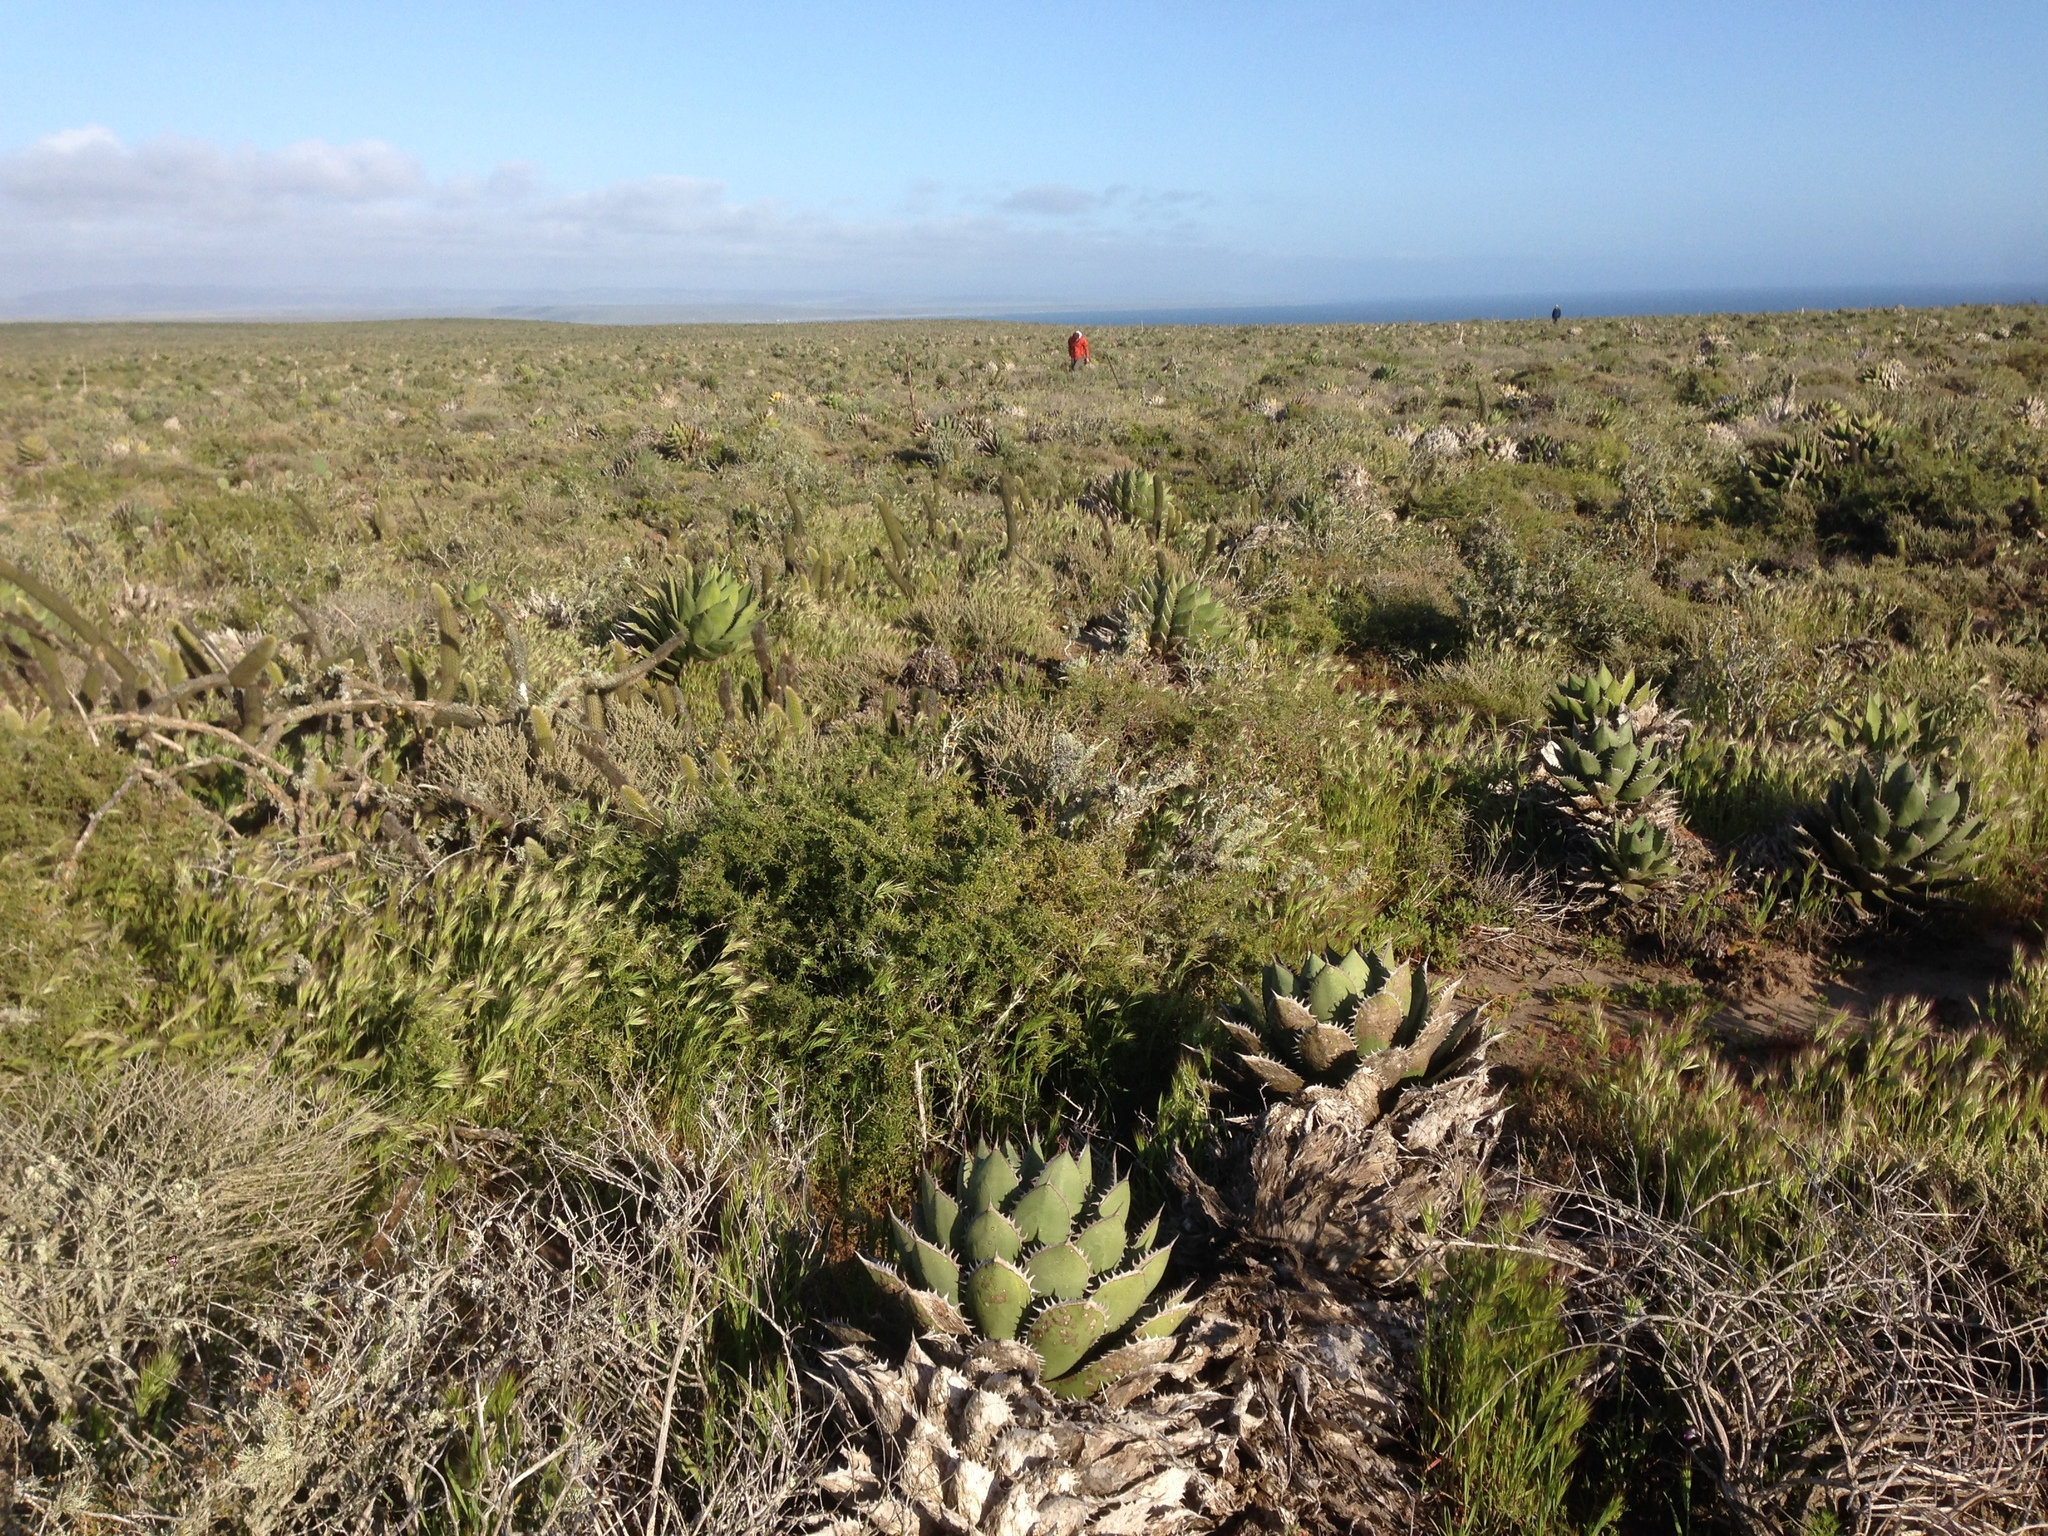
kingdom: Plantae
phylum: Tracheophyta
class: Liliopsida
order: Asparagales
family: Asparagaceae
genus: Agave
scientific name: Agave shawii
